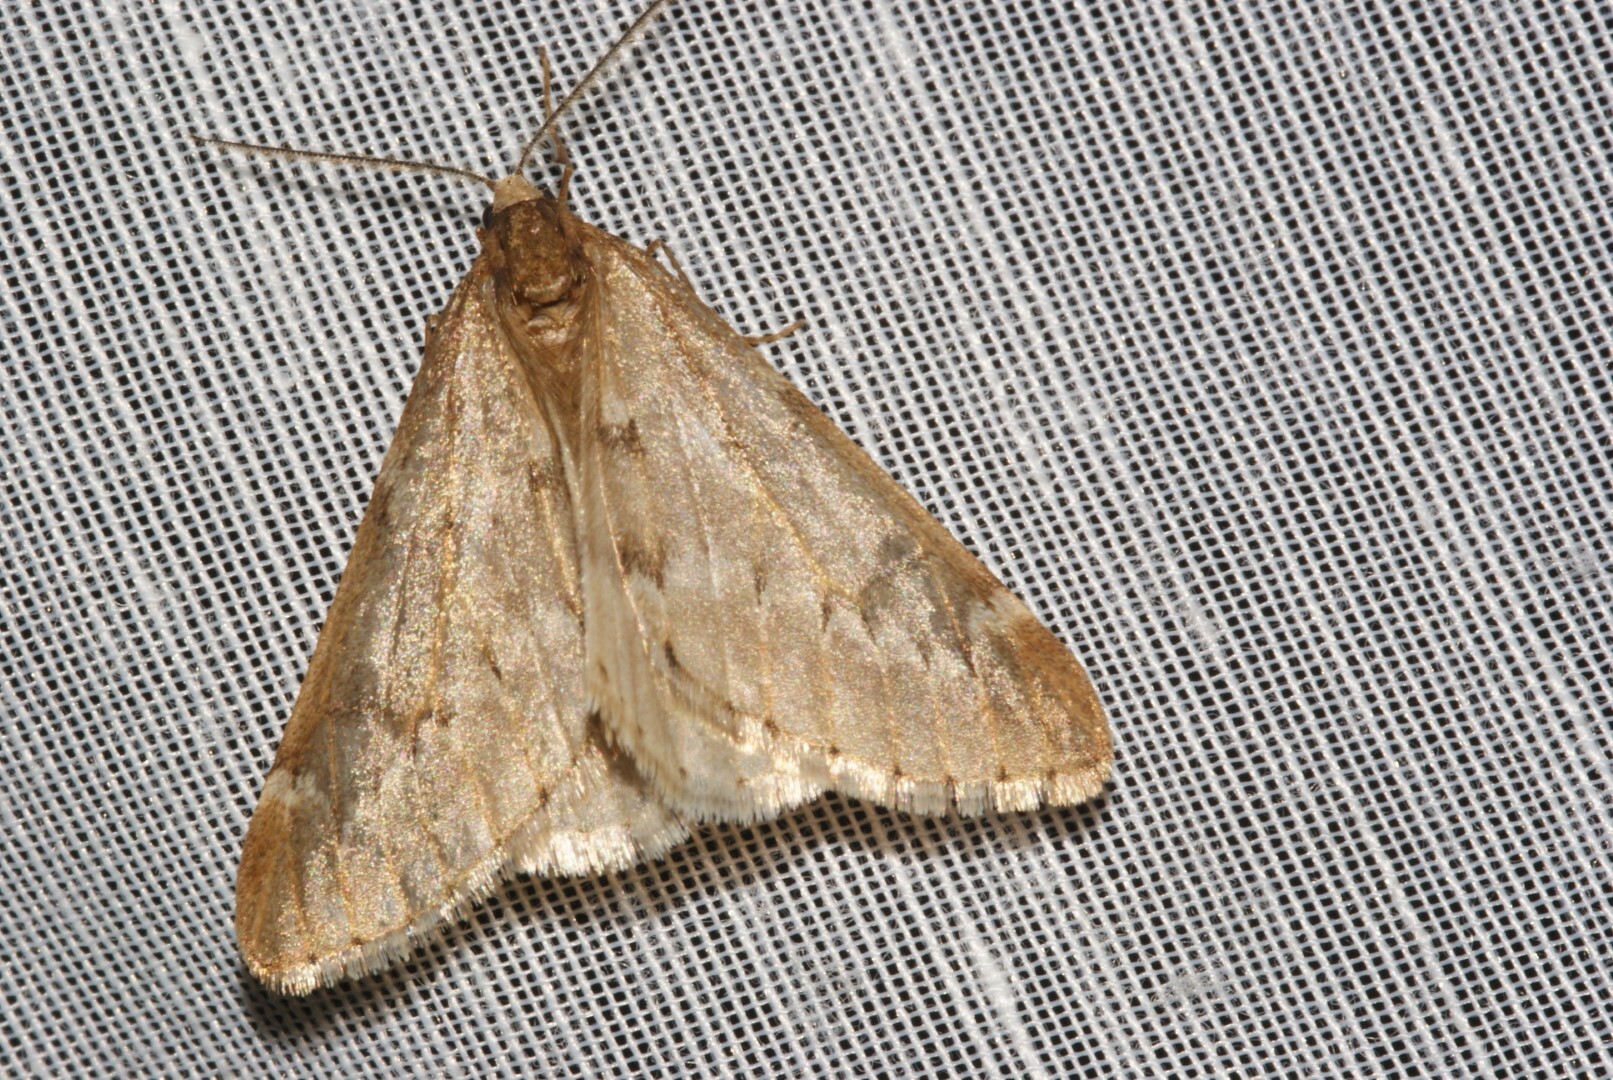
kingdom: Animalia
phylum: Arthropoda
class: Insecta
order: Lepidoptera
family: Geometridae
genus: Alsophila
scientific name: Alsophila aescularia
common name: March moth
